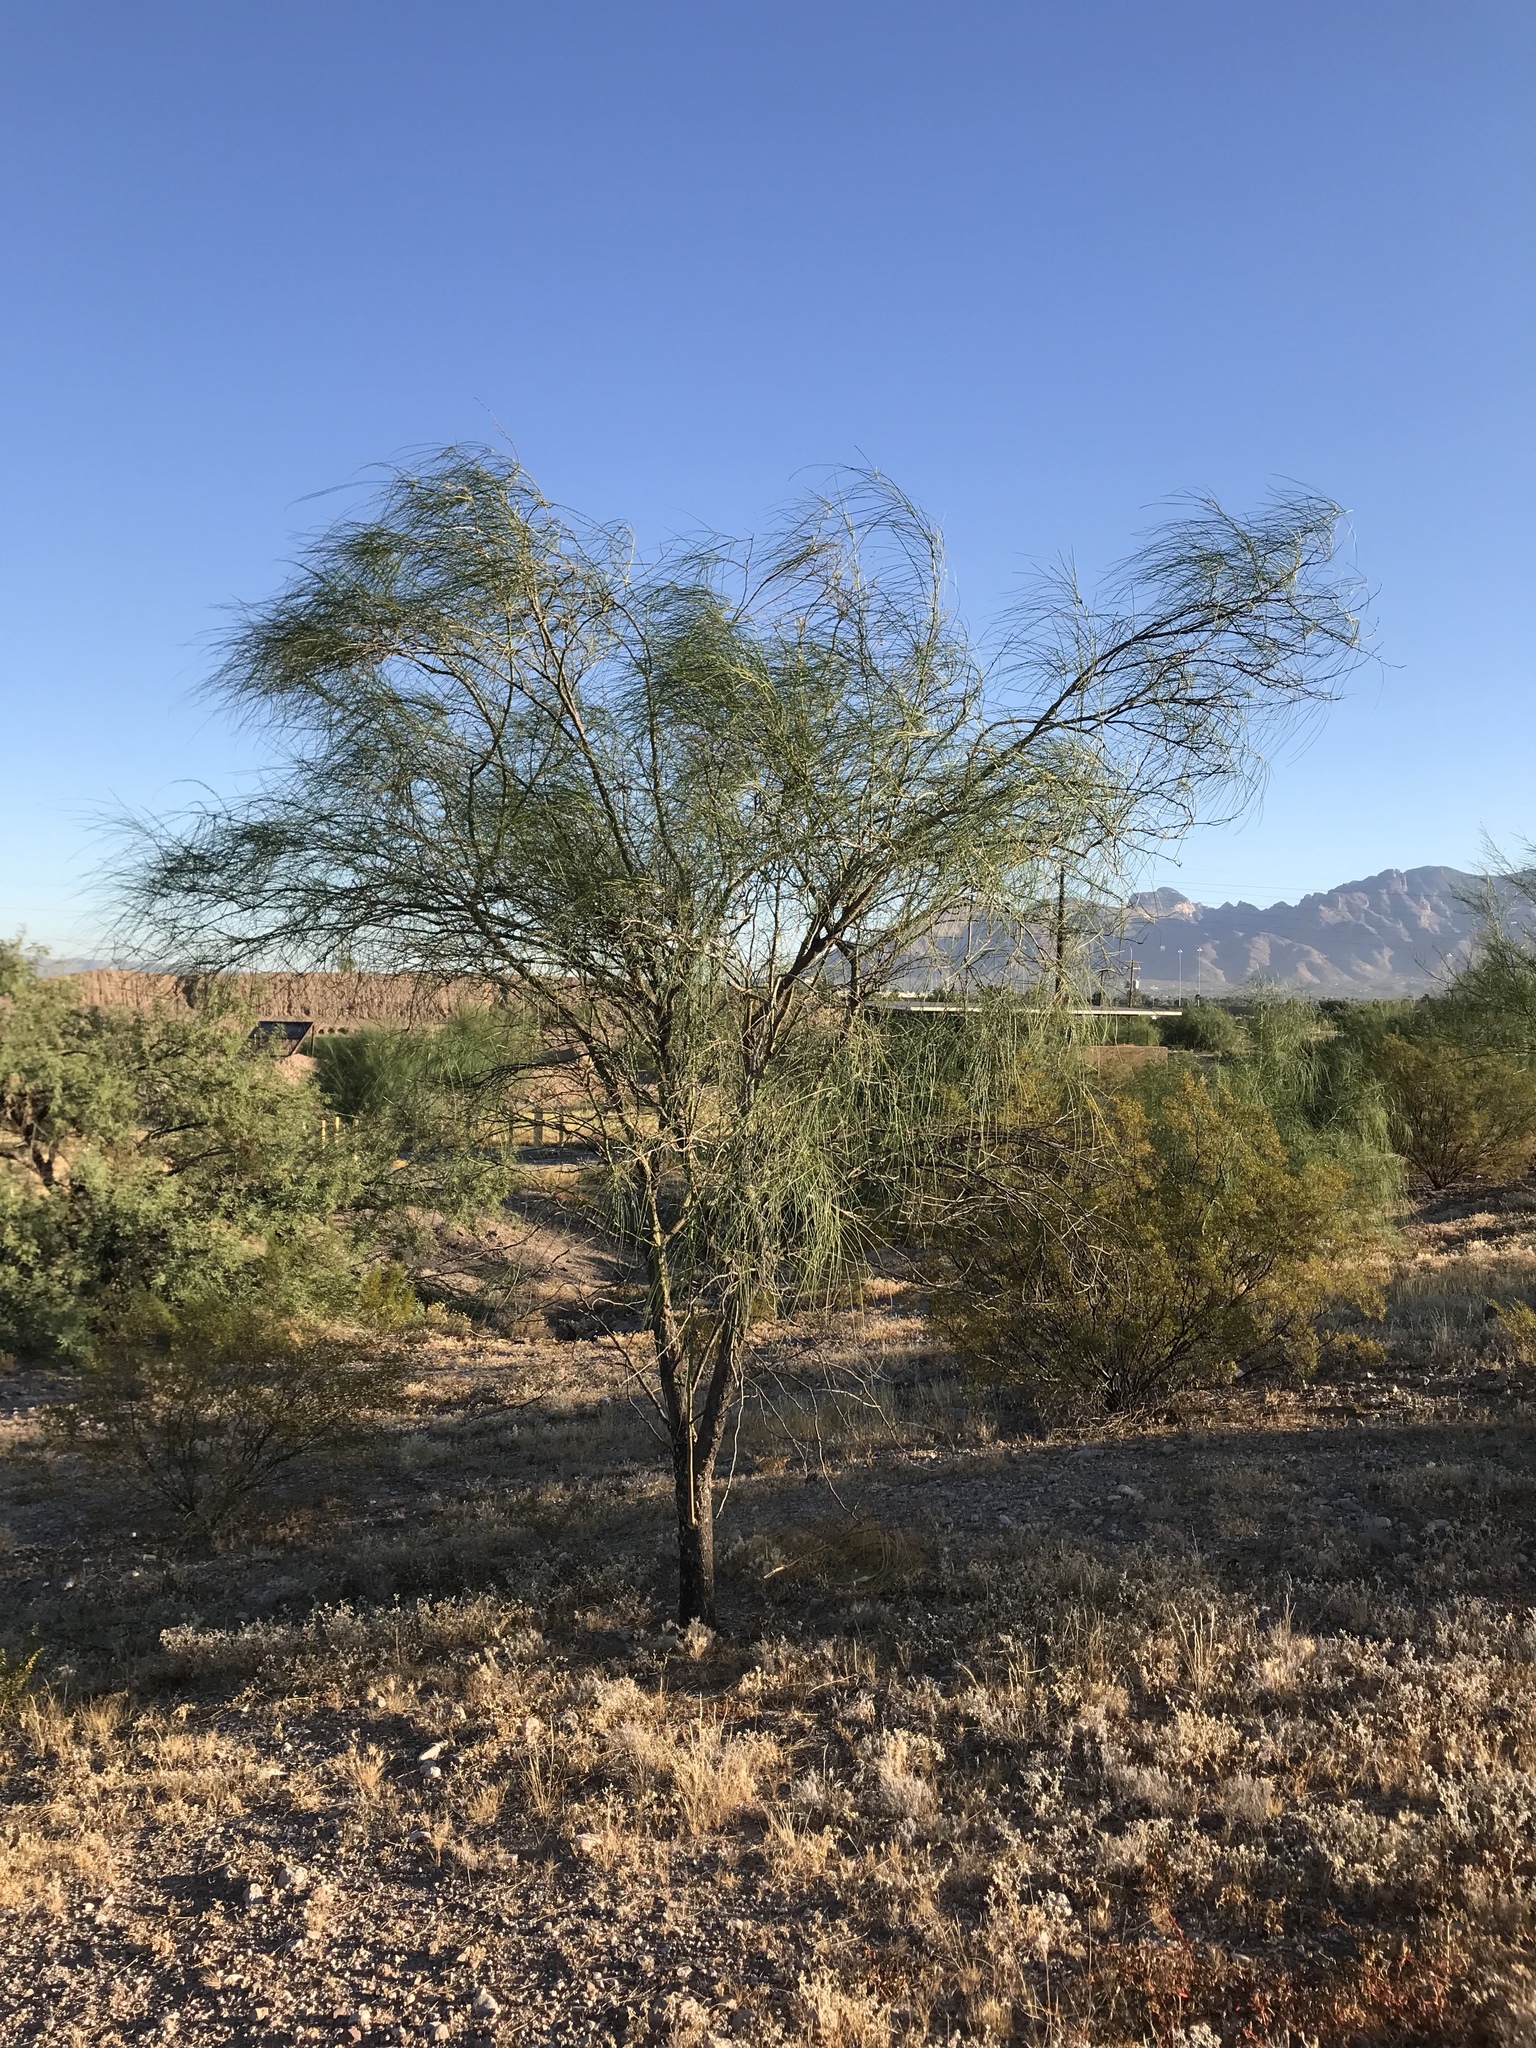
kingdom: Plantae
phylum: Tracheophyta
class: Magnoliopsida
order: Fabales
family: Fabaceae
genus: Parkinsonia
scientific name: Parkinsonia aculeata
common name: Jerusalem thorn
